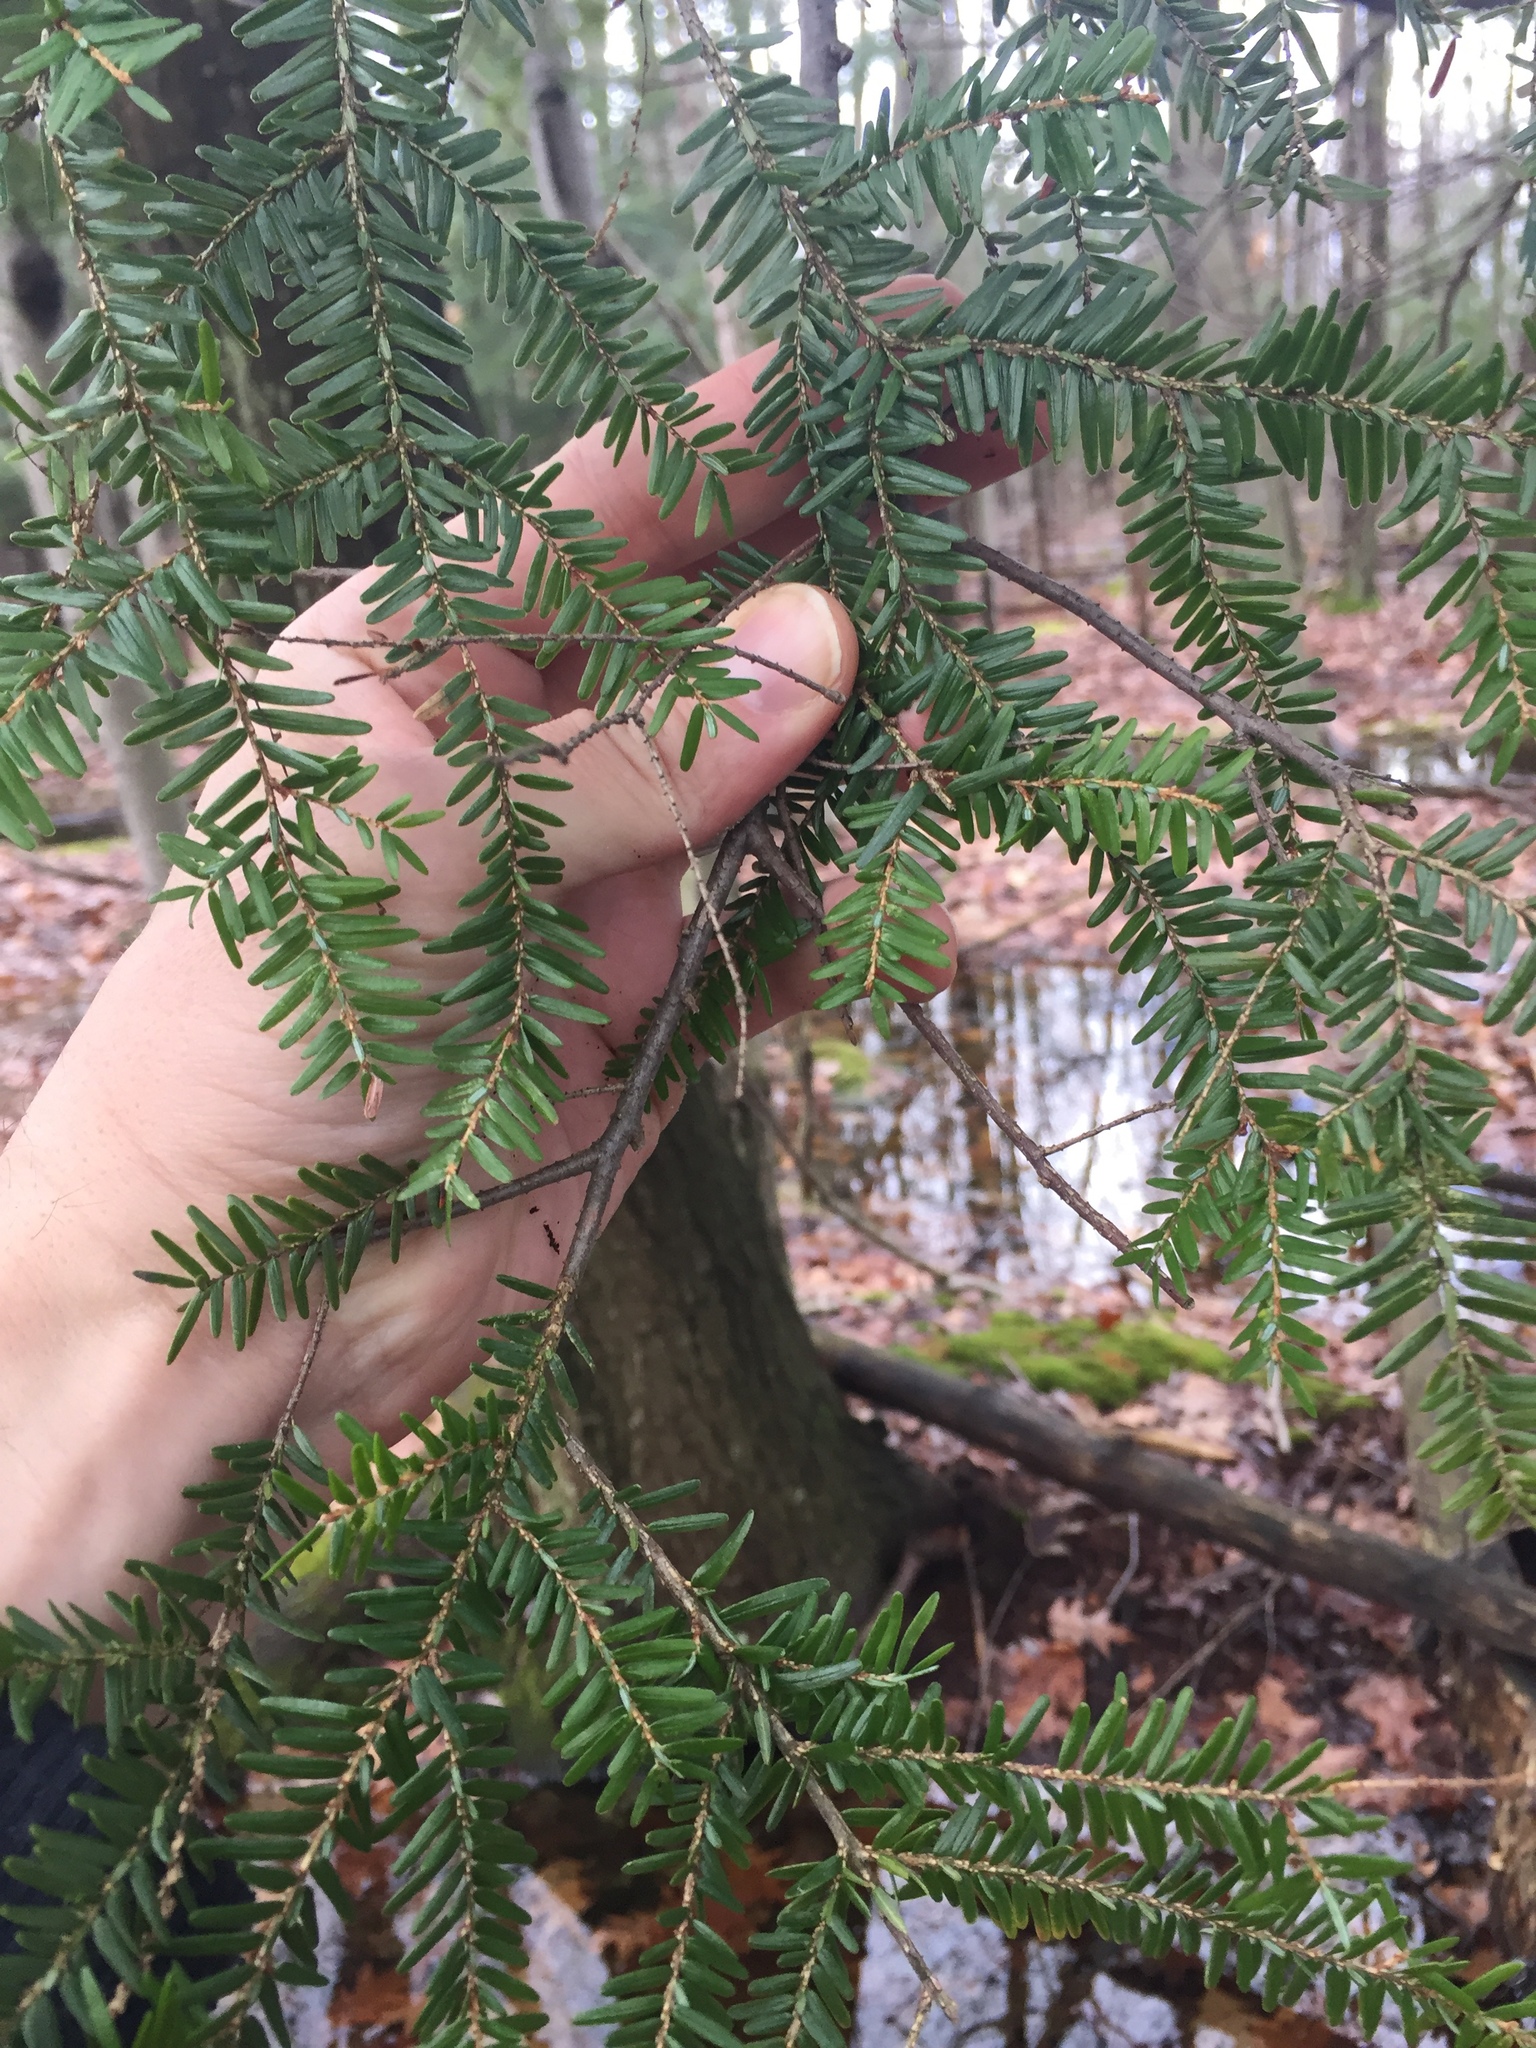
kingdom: Plantae
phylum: Tracheophyta
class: Pinopsida
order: Pinales
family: Pinaceae
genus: Tsuga
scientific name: Tsuga canadensis
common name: Eastern hemlock
